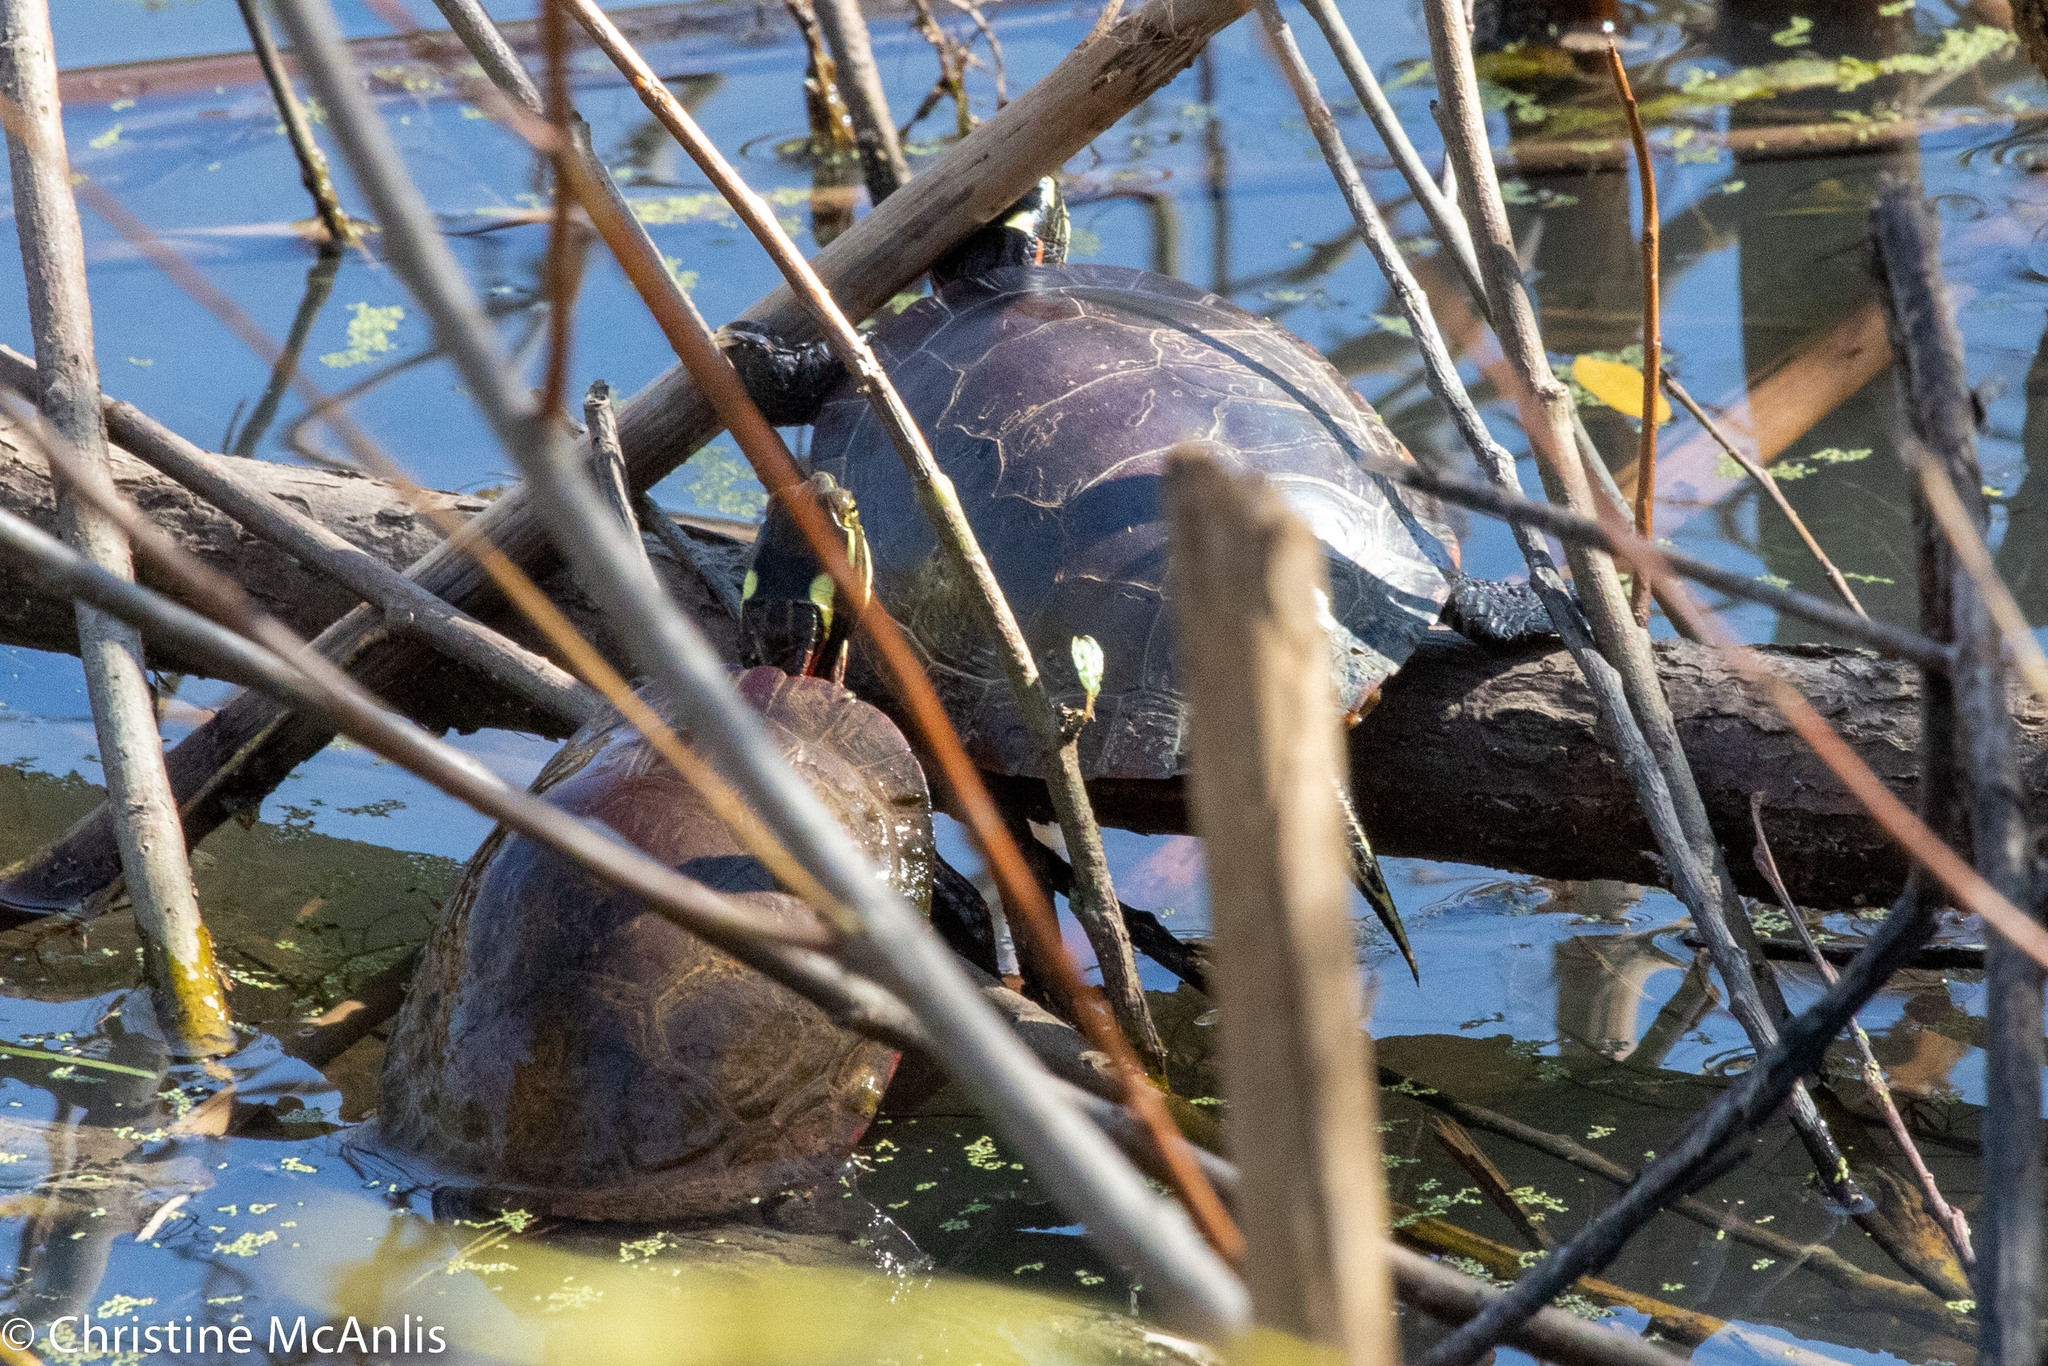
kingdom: Animalia
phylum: Chordata
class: Testudines
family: Emydidae
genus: Chrysemys
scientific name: Chrysemys picta
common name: Painted turtle
